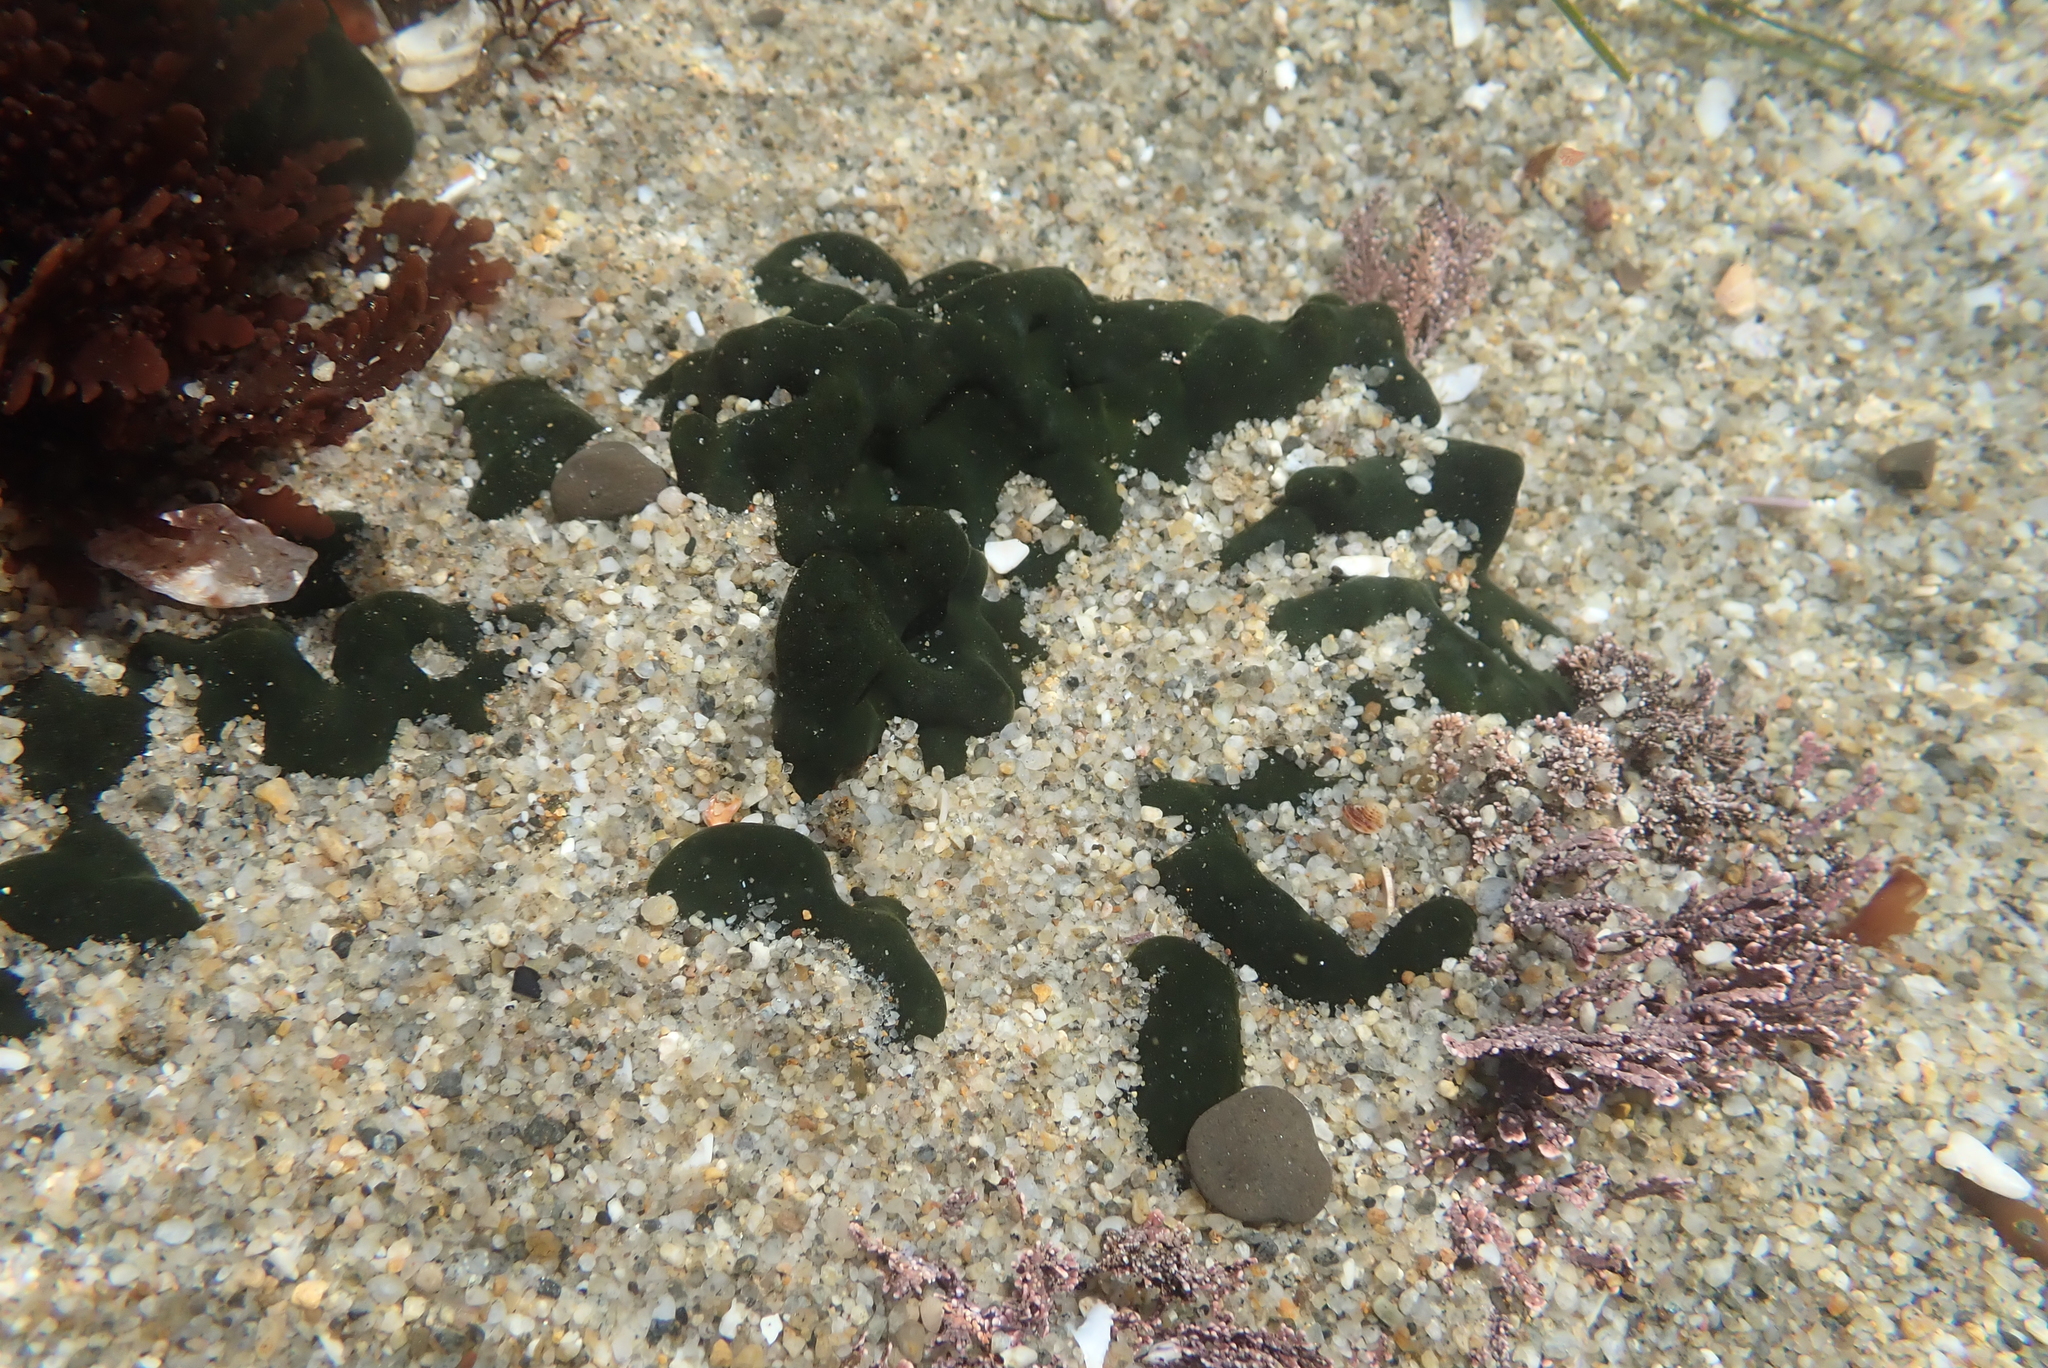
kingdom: Plantae
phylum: Chlorophyta
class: Ulvophyceae
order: Bryopsidales
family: Codiaceae
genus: Codium
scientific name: Codium setchellii
